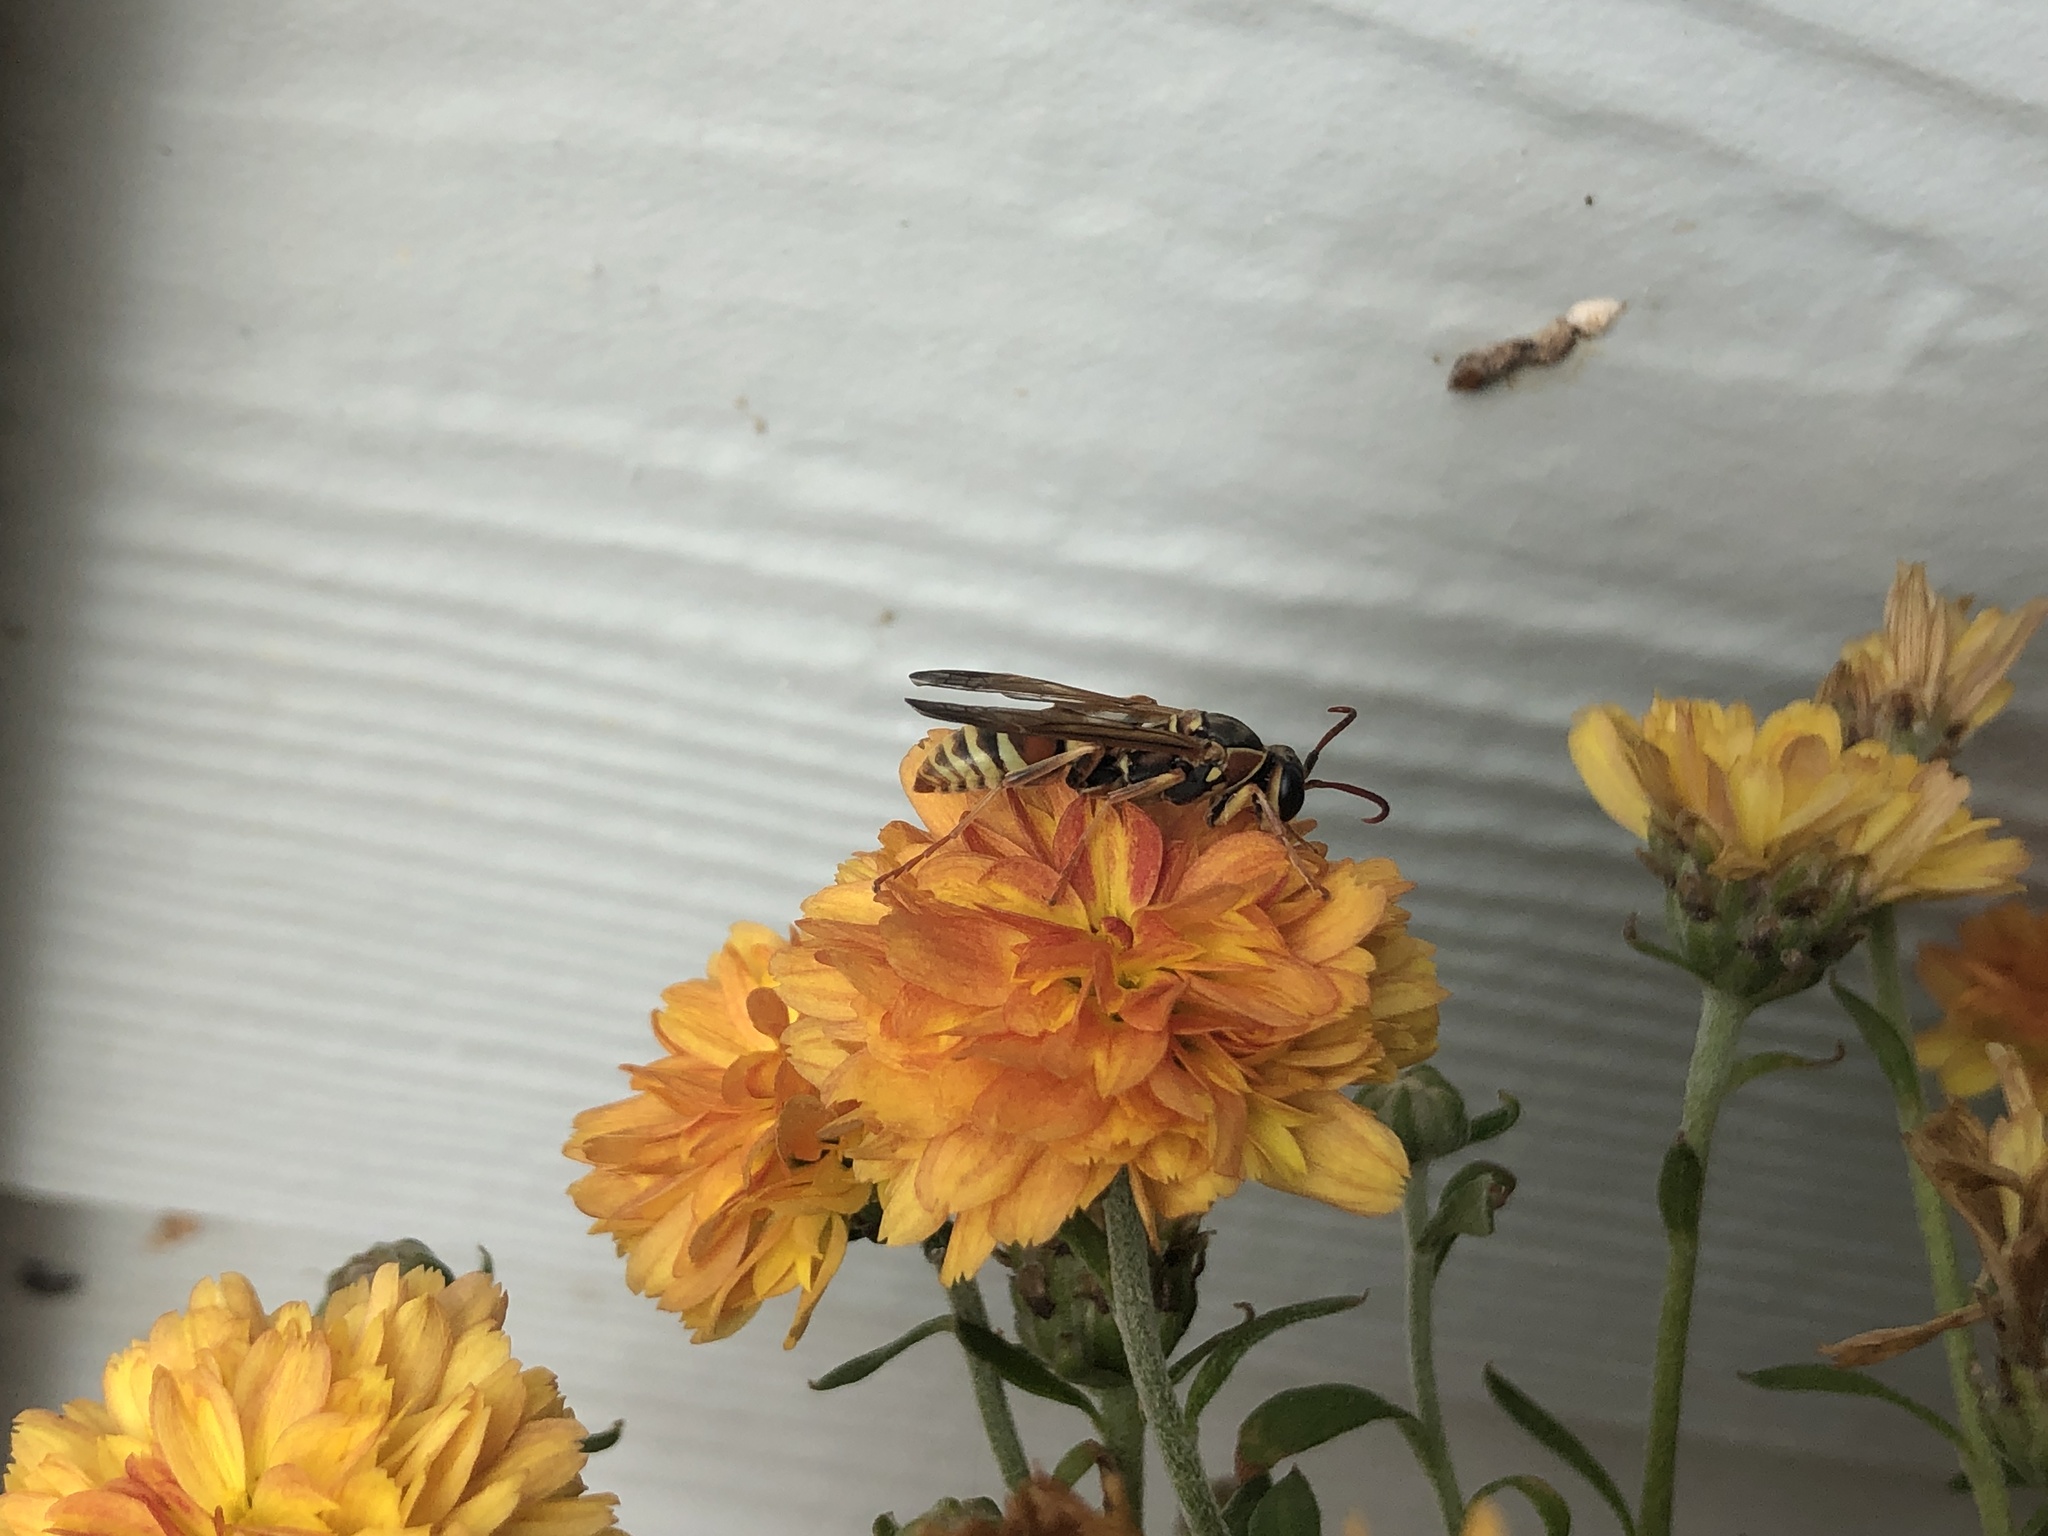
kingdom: Animalia
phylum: Arthropoda
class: Insecta
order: Hymenoptera
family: Eumenidae
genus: Polistes
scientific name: Polistes dorsalis
